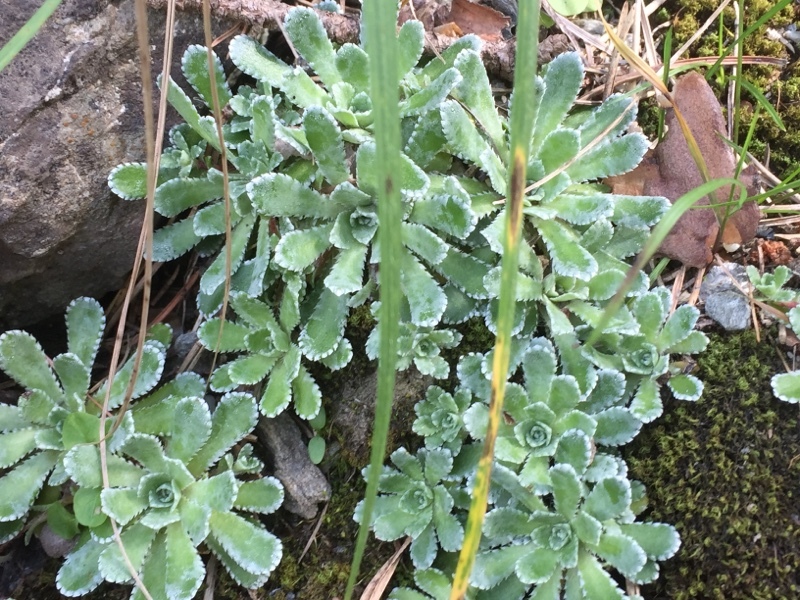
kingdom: Plantae
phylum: Tracheophyta
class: Magnoliopsida
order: Saxifragales
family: Saxifragaceae
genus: Saxifraga
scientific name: Saxifraga paniculata
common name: Livelong saxifrage
